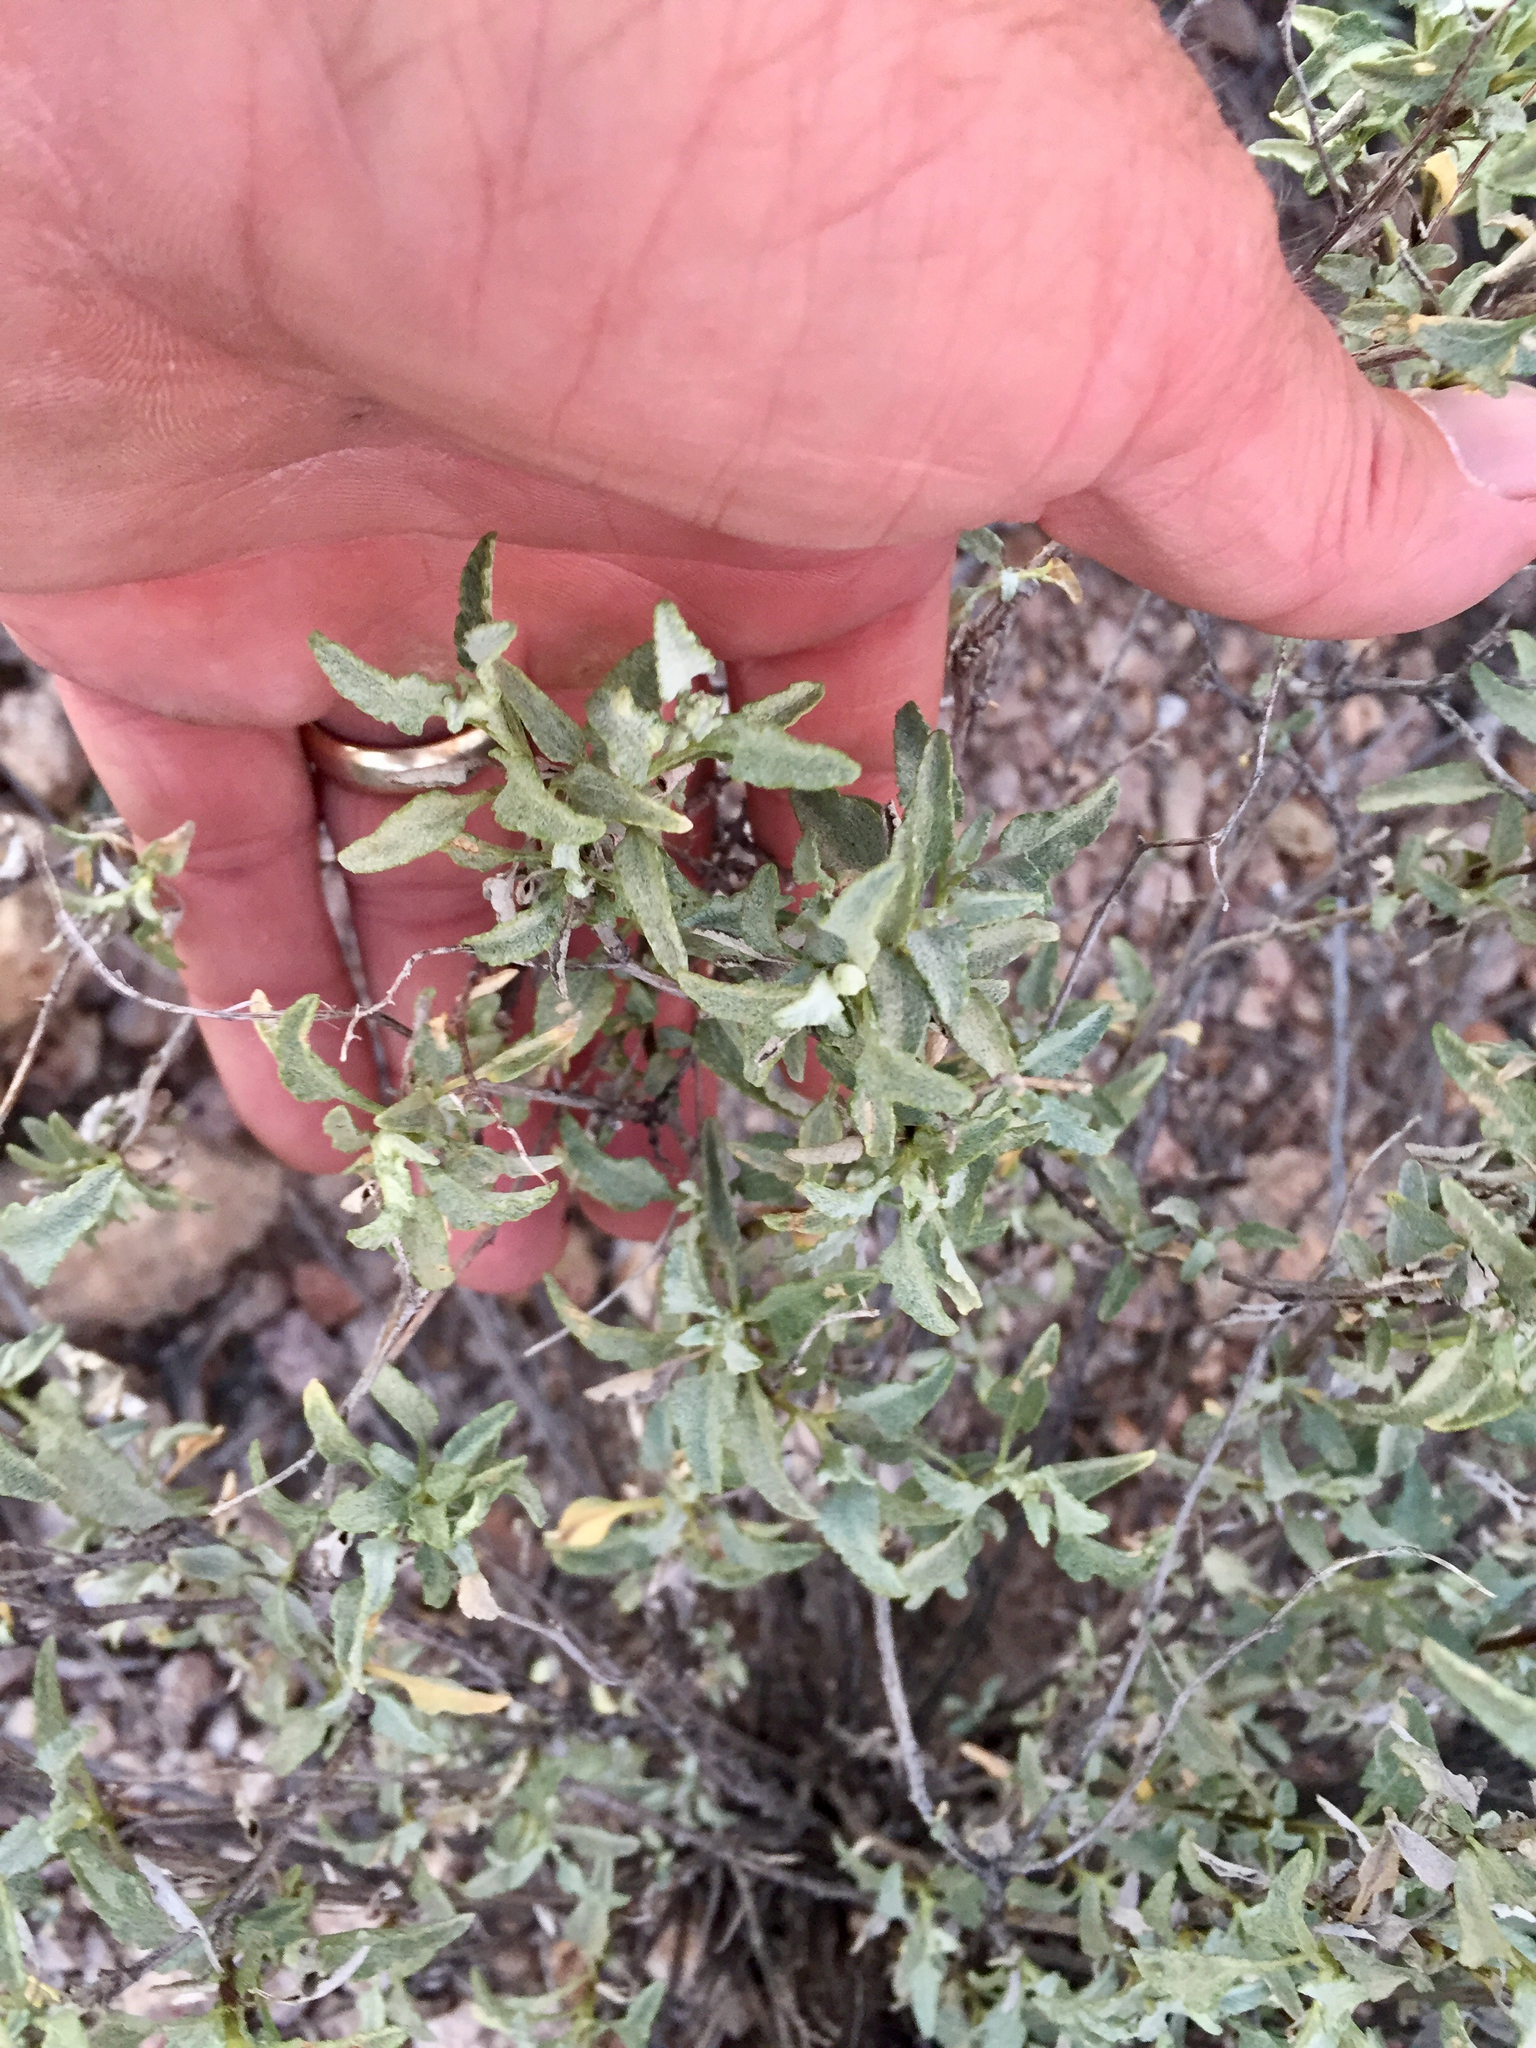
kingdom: Plantae
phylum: Tracheophyta
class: Magnoliopsida
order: Asterales
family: Asteraceae
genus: Ambrosia
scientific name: Ambrosia deltoidea
